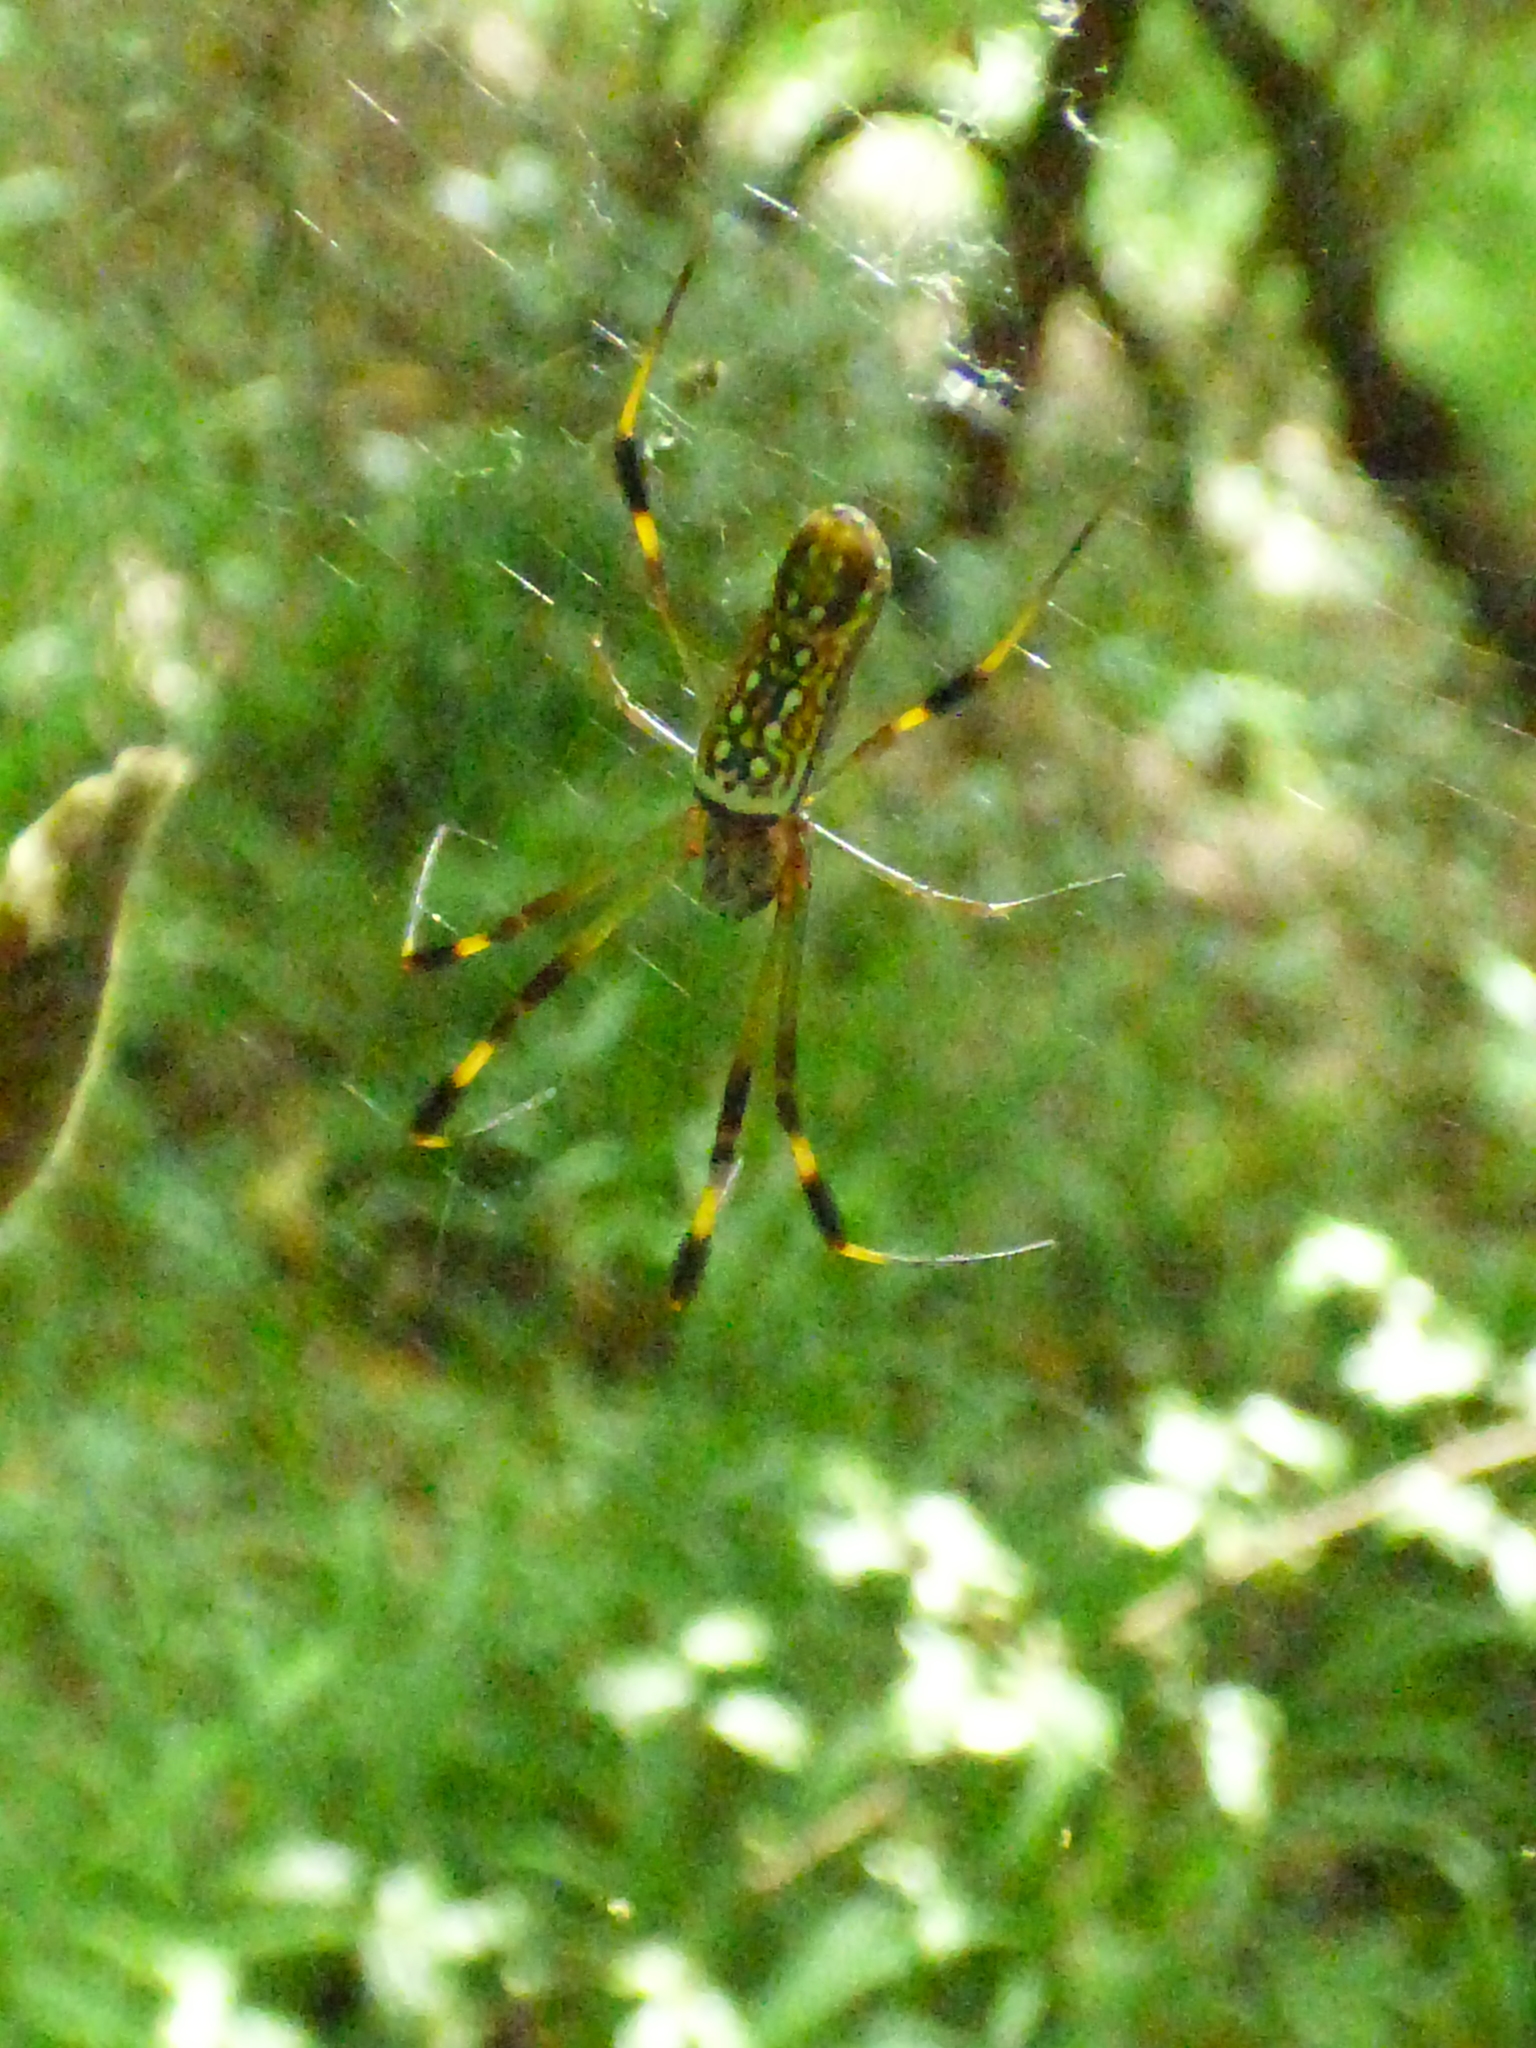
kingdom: Animalia
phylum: Arthropoda
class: Arachnida
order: Araneae
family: Araneidae
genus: Trichonephila
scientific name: Trichonephila clavipes
